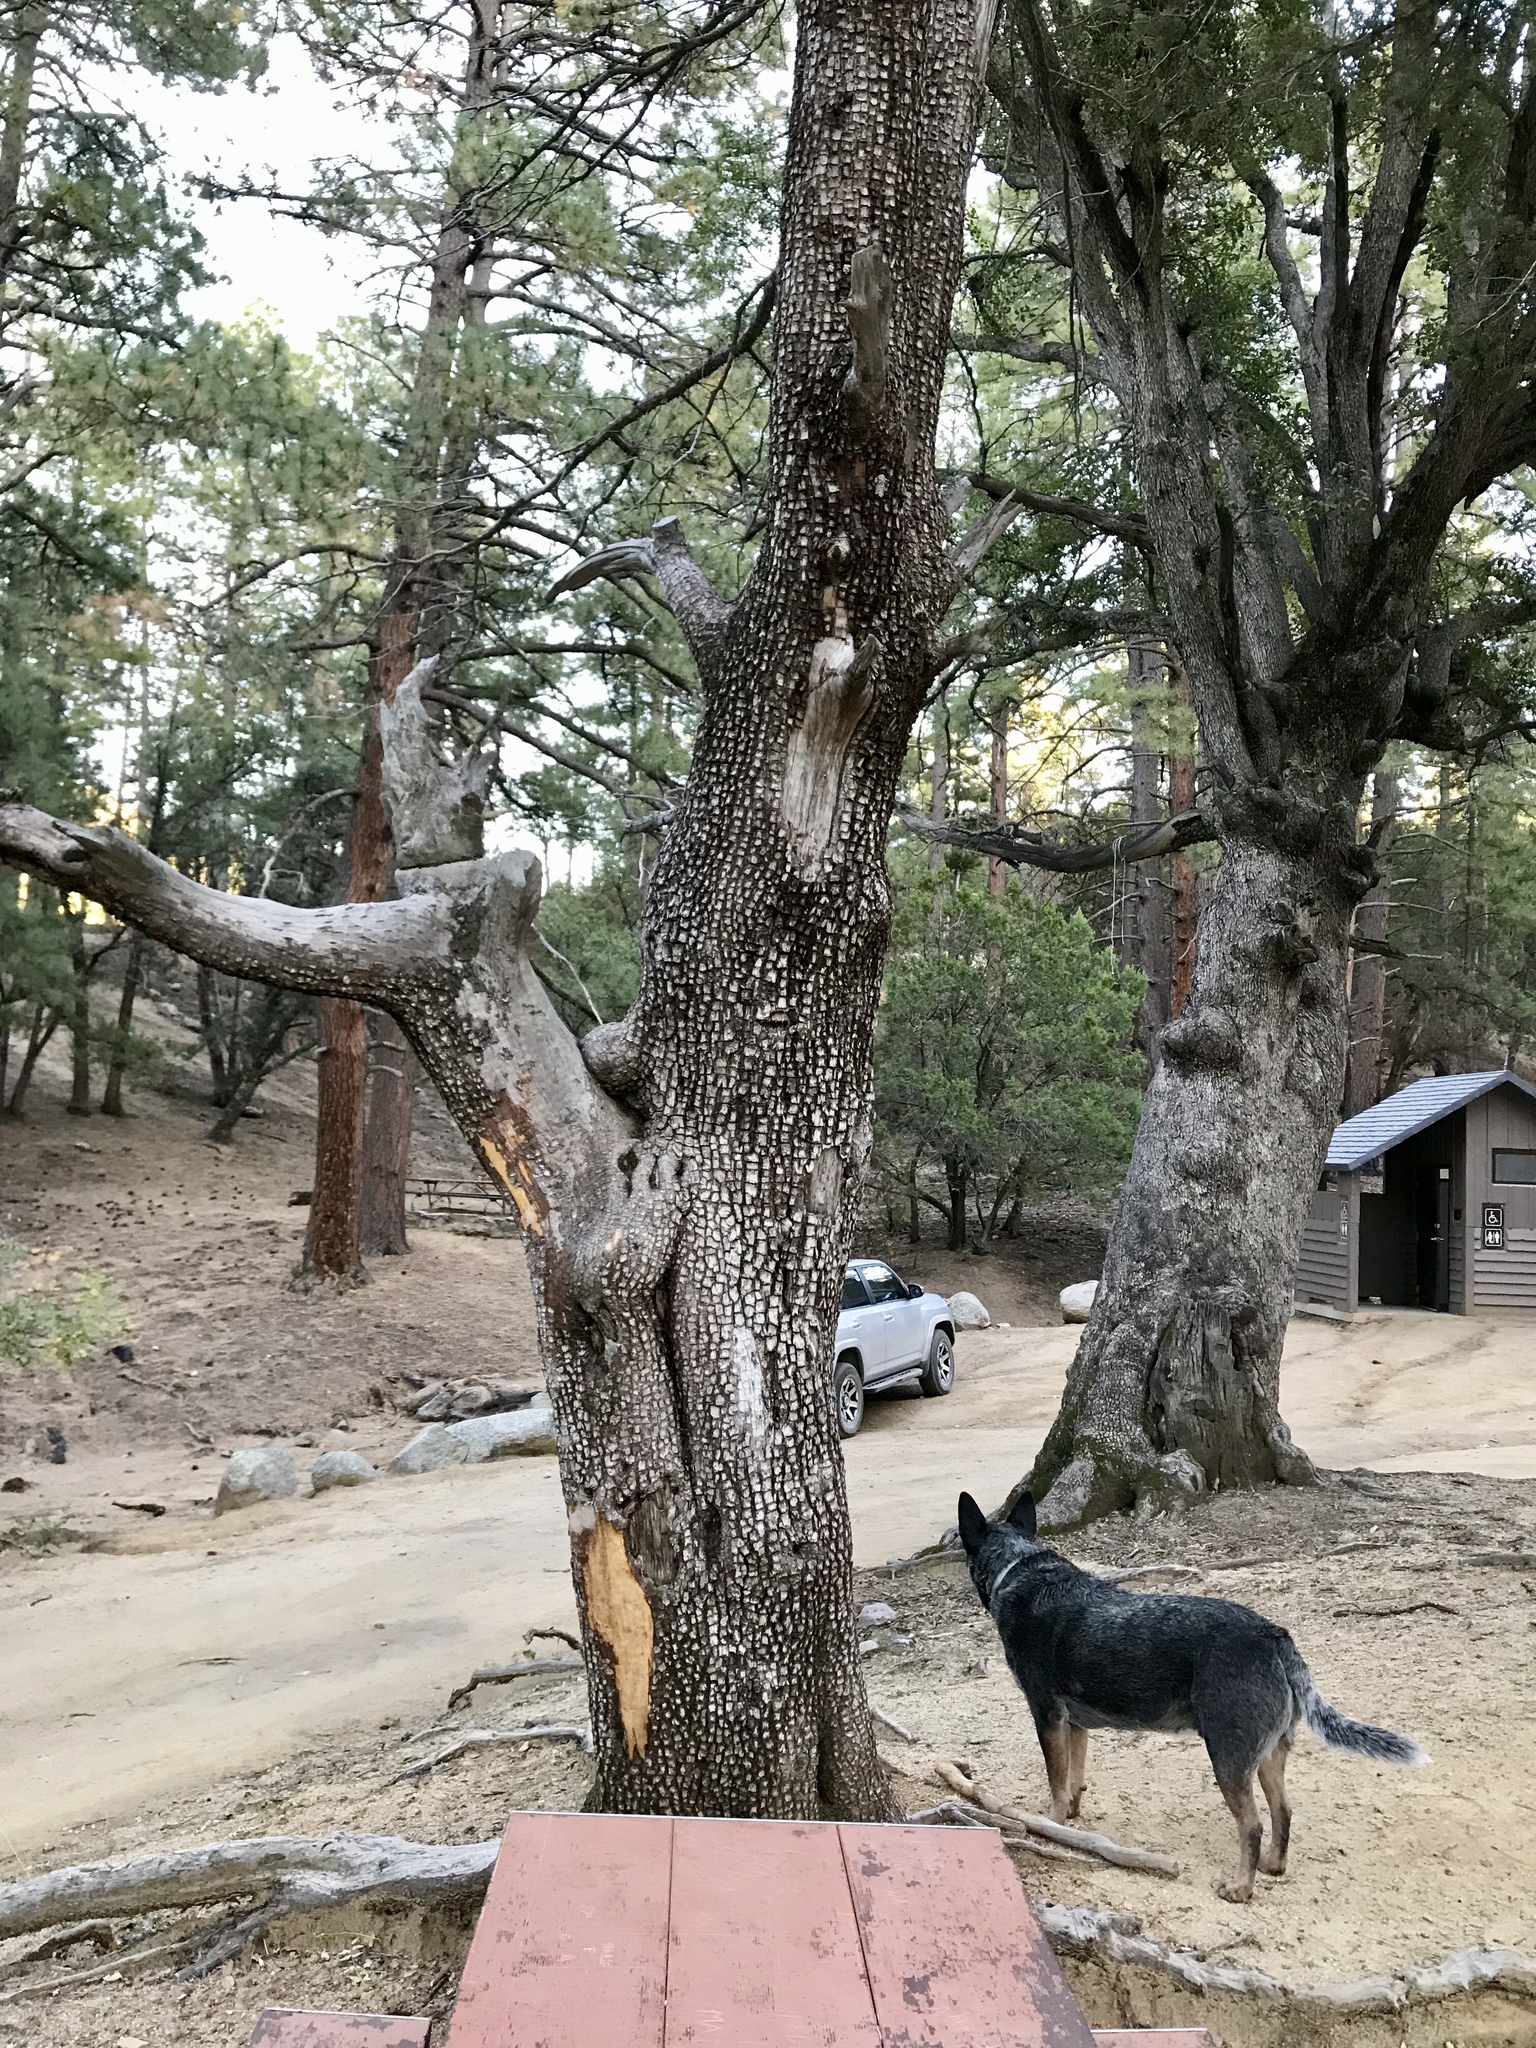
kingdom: Plantae
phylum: Tracheophyta
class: Pinopsida
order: Pinales
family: Cupressaceae
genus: Juniperus
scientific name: Juniperus deppeana
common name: Alligator juniper
